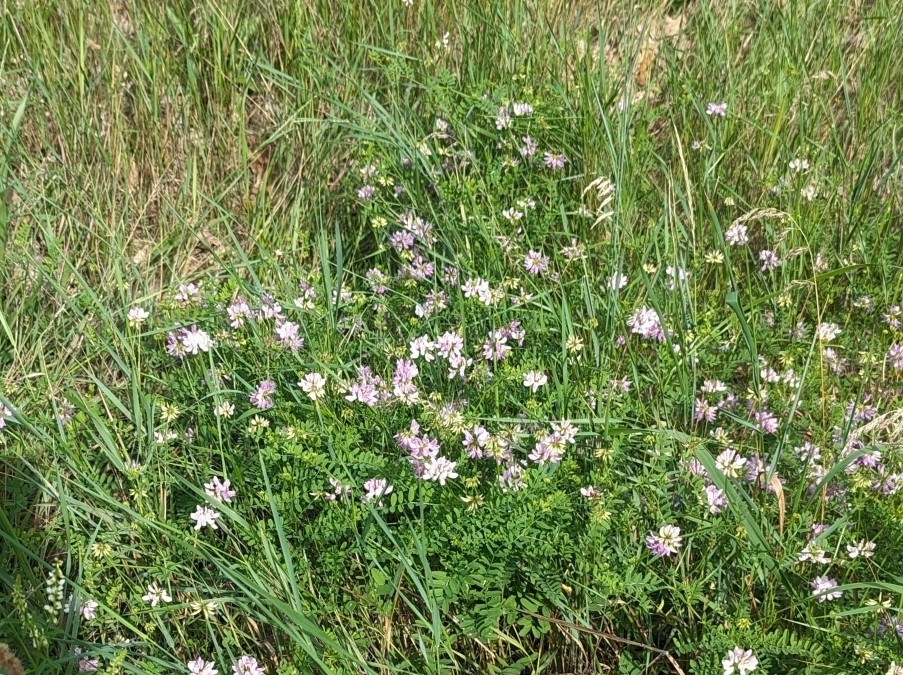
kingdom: Plantae
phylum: Tracheophyta
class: Magnoliopsida
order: Fabales
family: Fabaceae
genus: Coronilla
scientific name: Coronilla varia
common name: Crownvetch
